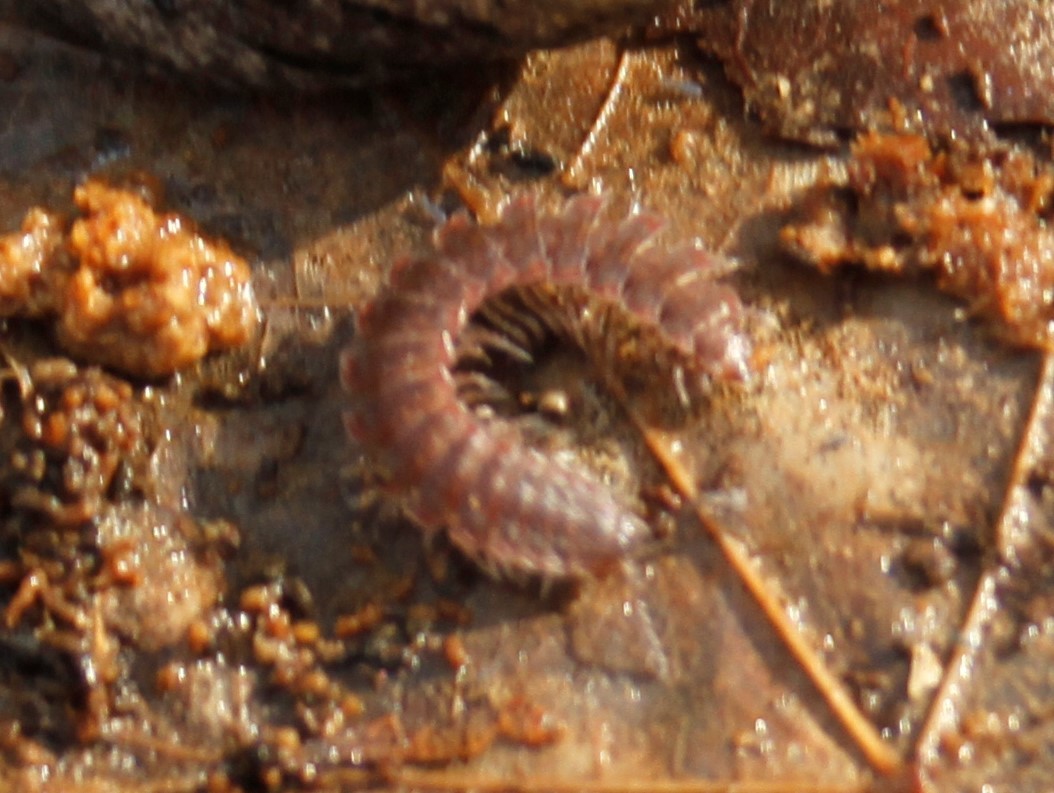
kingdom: Animalia
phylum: Arthropoda
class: Diplopoda
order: Polydesmida
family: Polydesmidae
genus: Pseudopolydesmus
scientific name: Pseudopolydesmus serratus
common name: Common pink flat-back millipede
